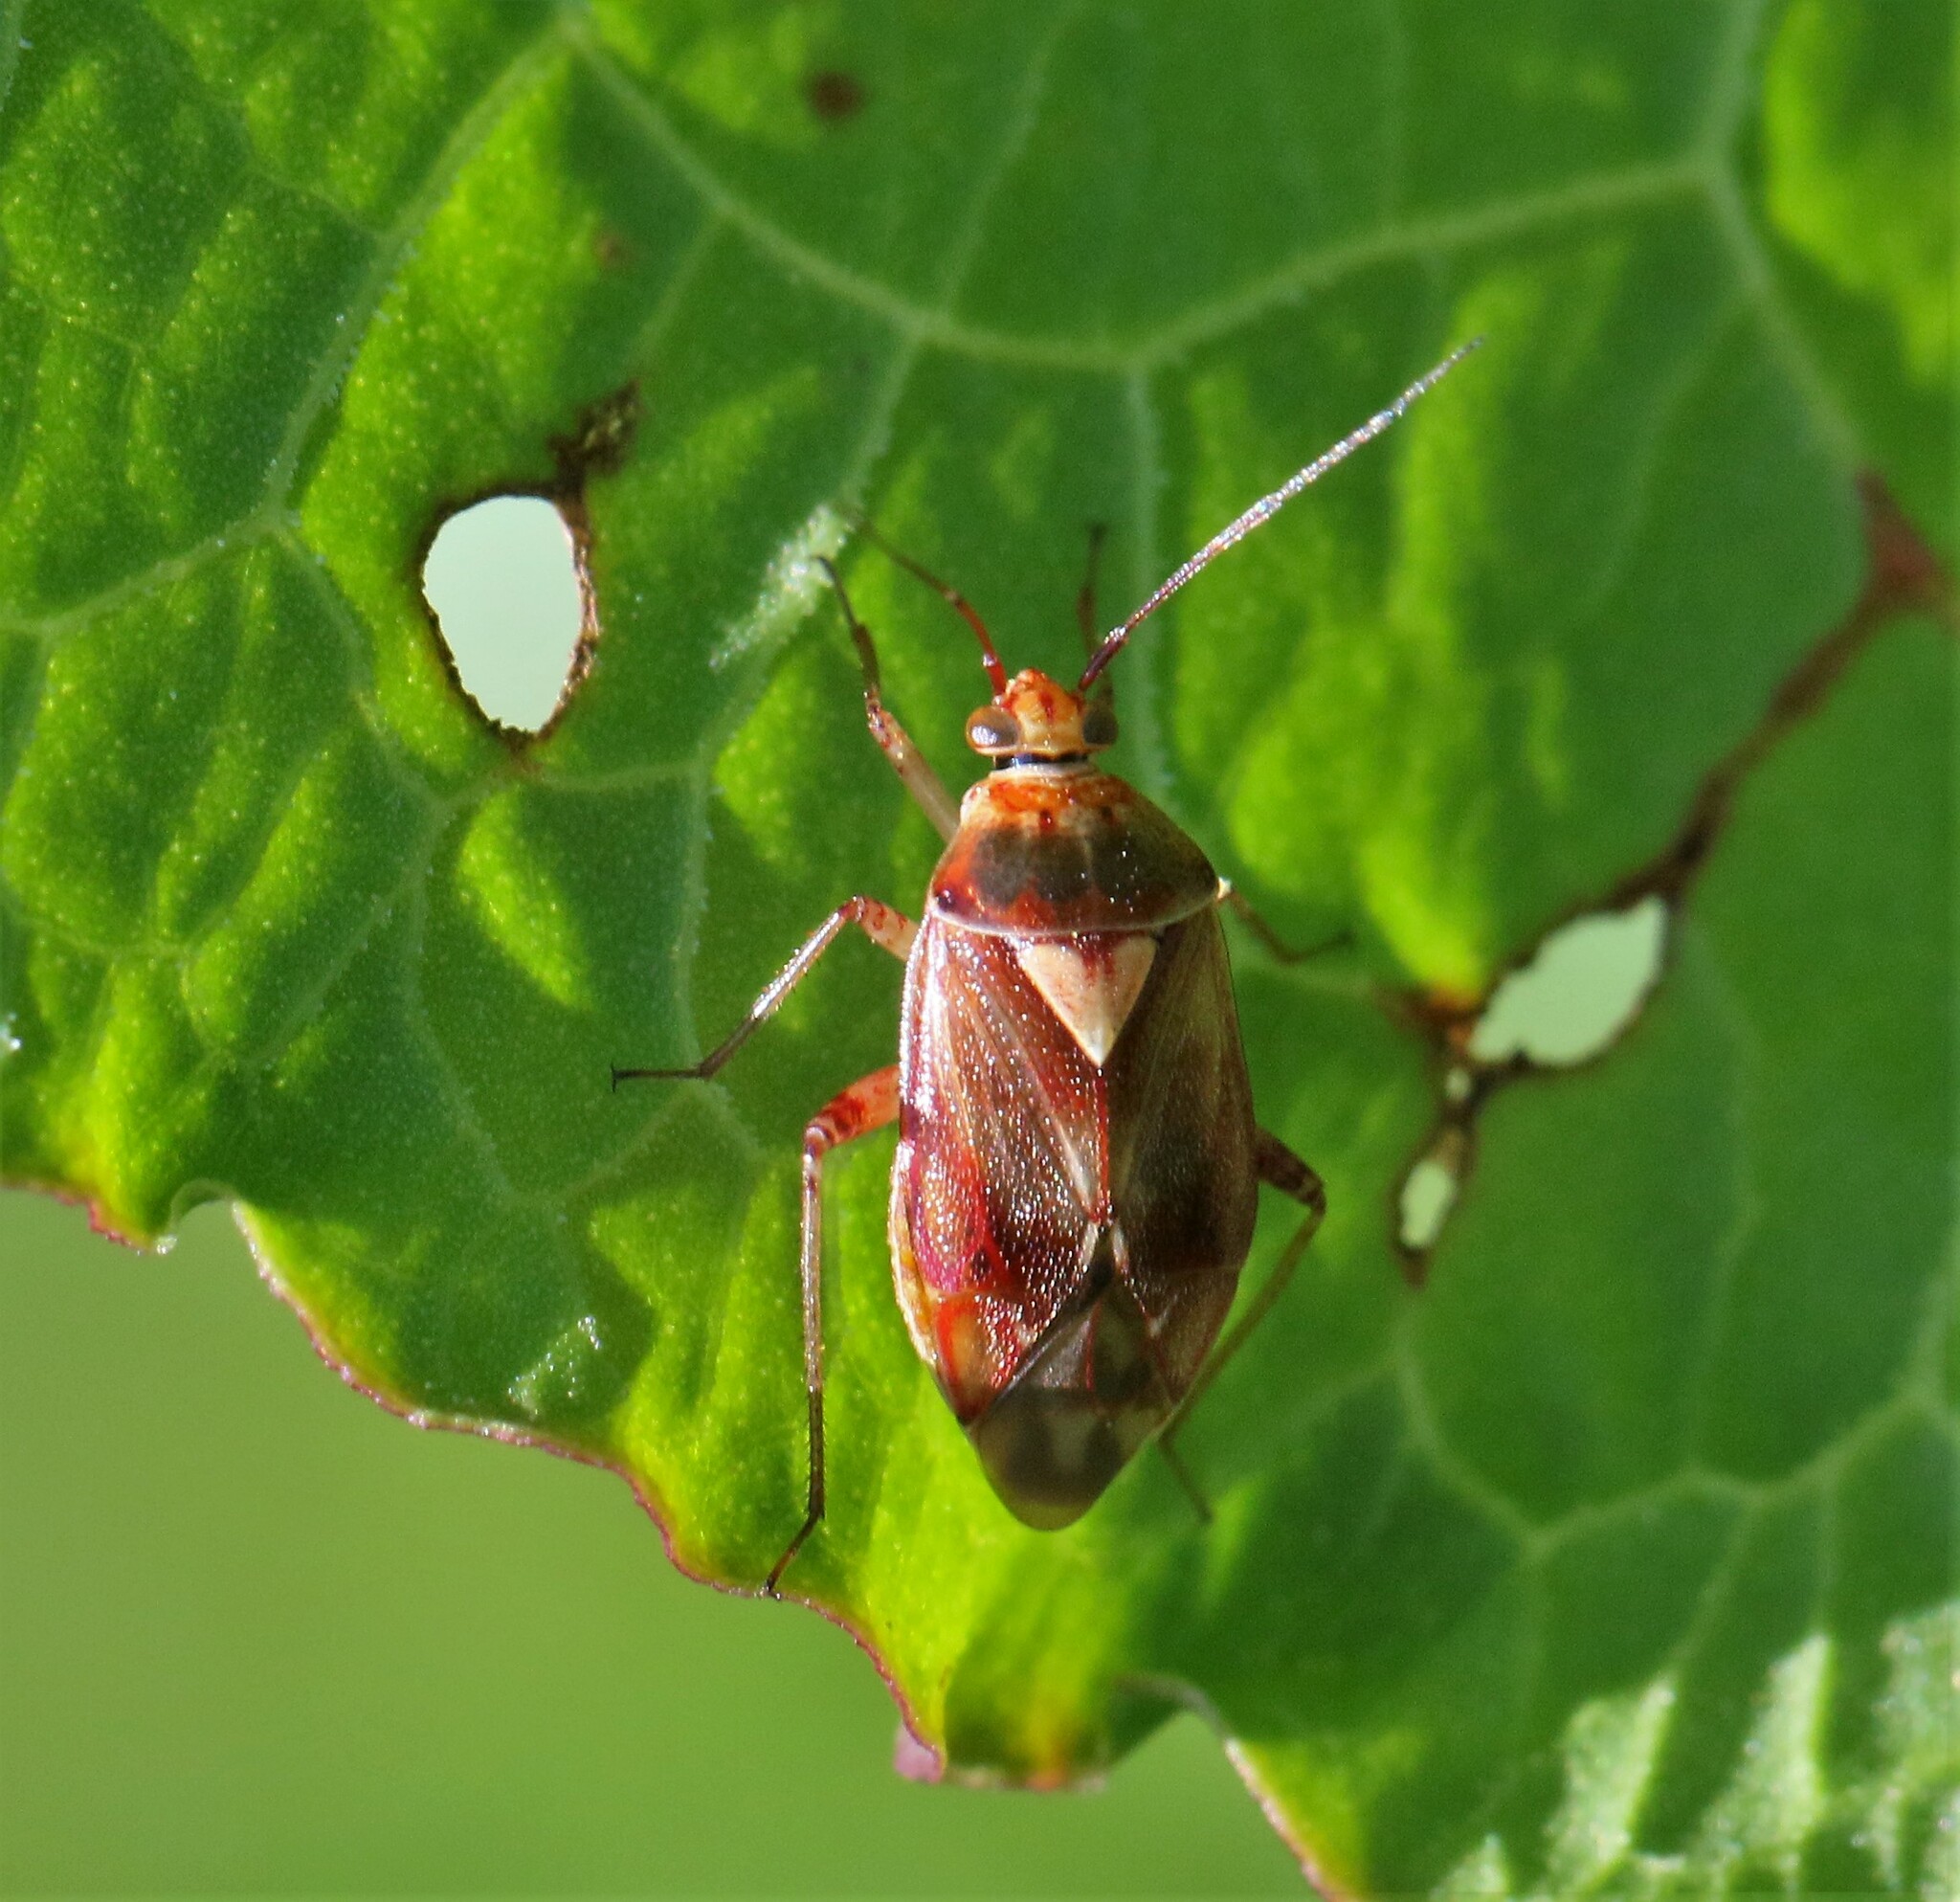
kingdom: Animalia
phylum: Arthropoda
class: Insecta
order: Hemiptera
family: Miridae
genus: Lygus
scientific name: Lygus rubroclarus
